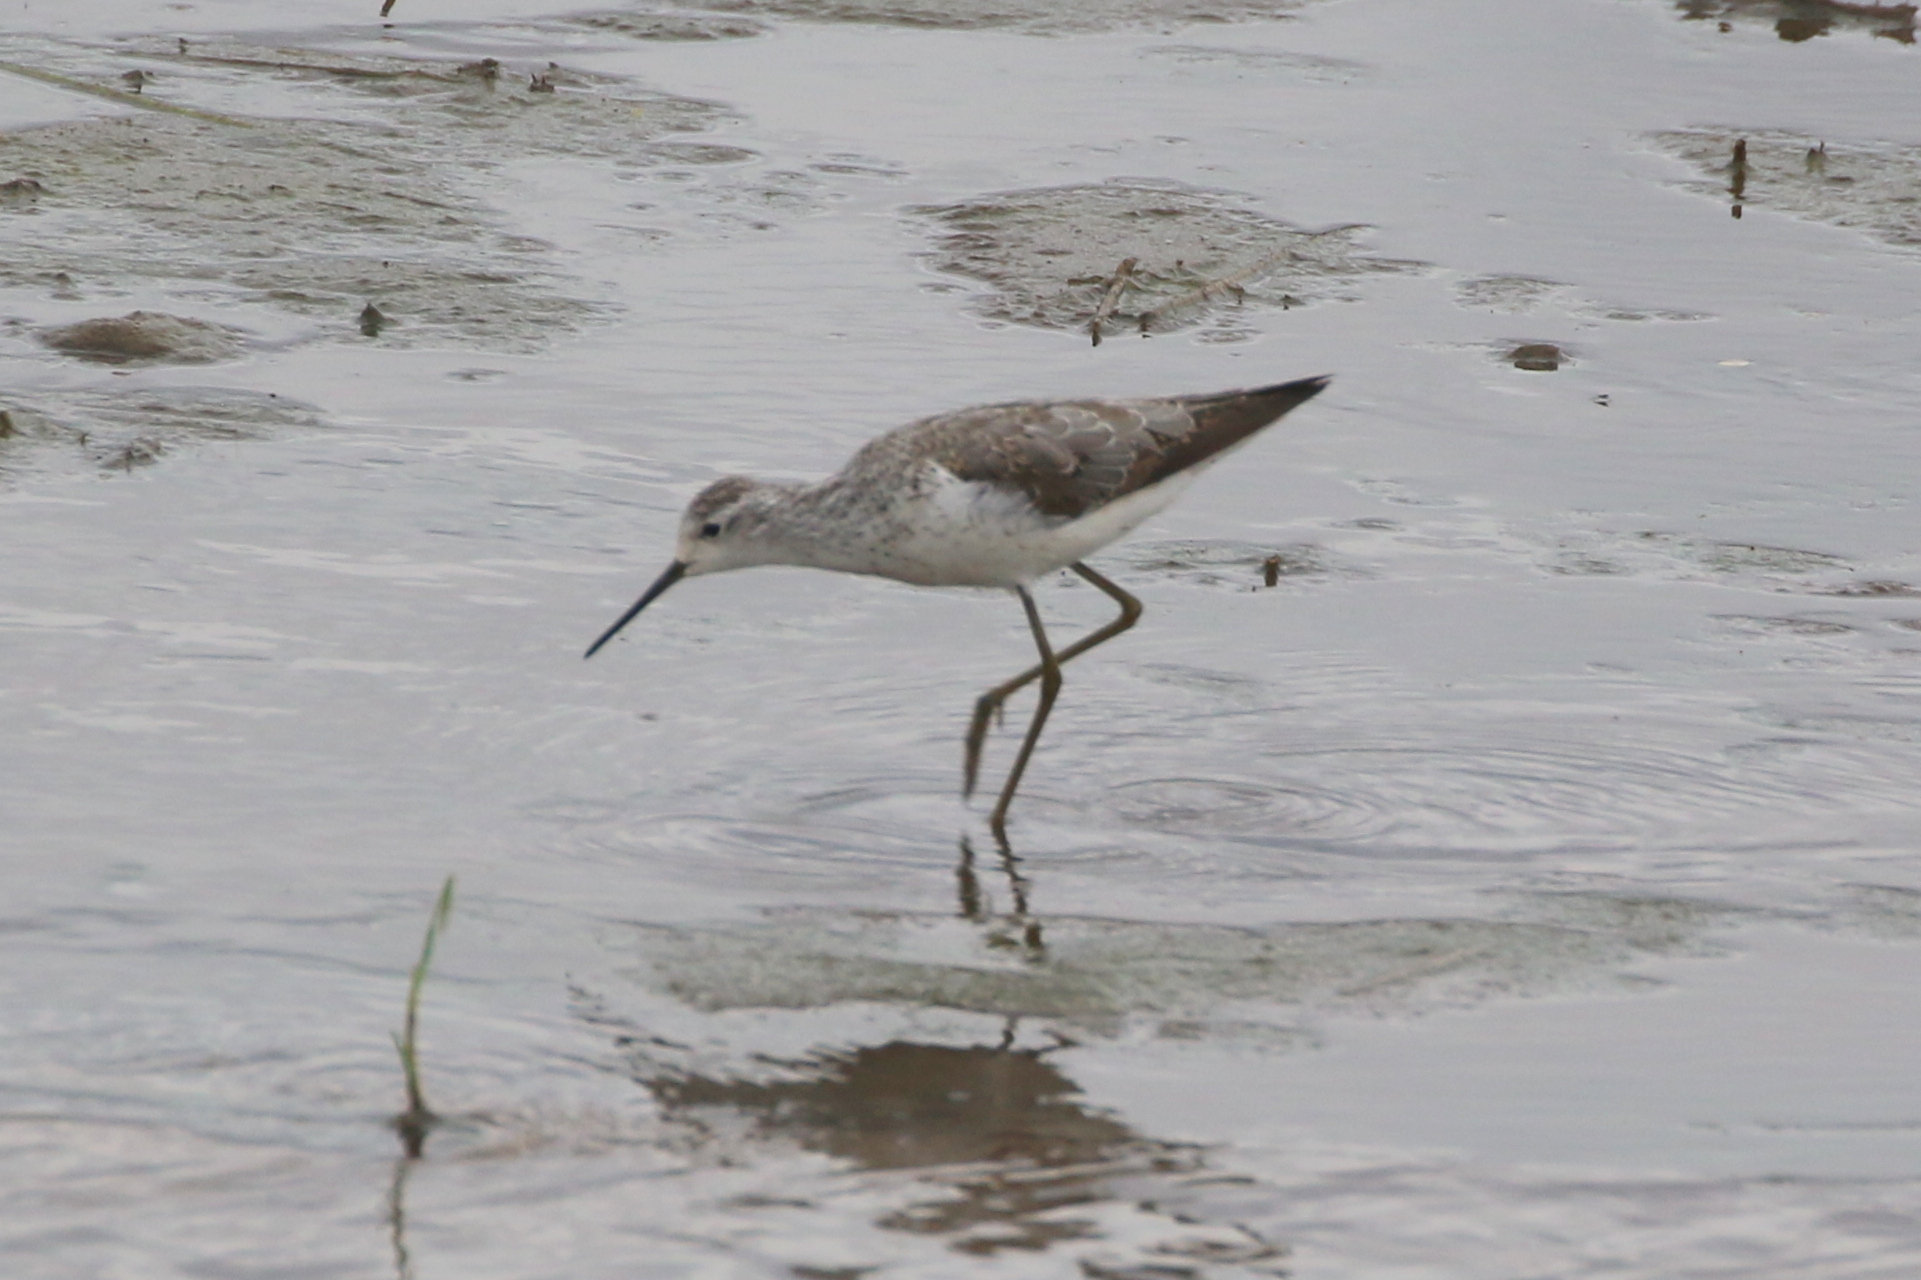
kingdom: Animalia
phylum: Chordata
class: Aves
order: Charadriiformes
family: Scolopacidae
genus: Tringa
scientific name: Tringa stagnatilis
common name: Marsh sandpiper
